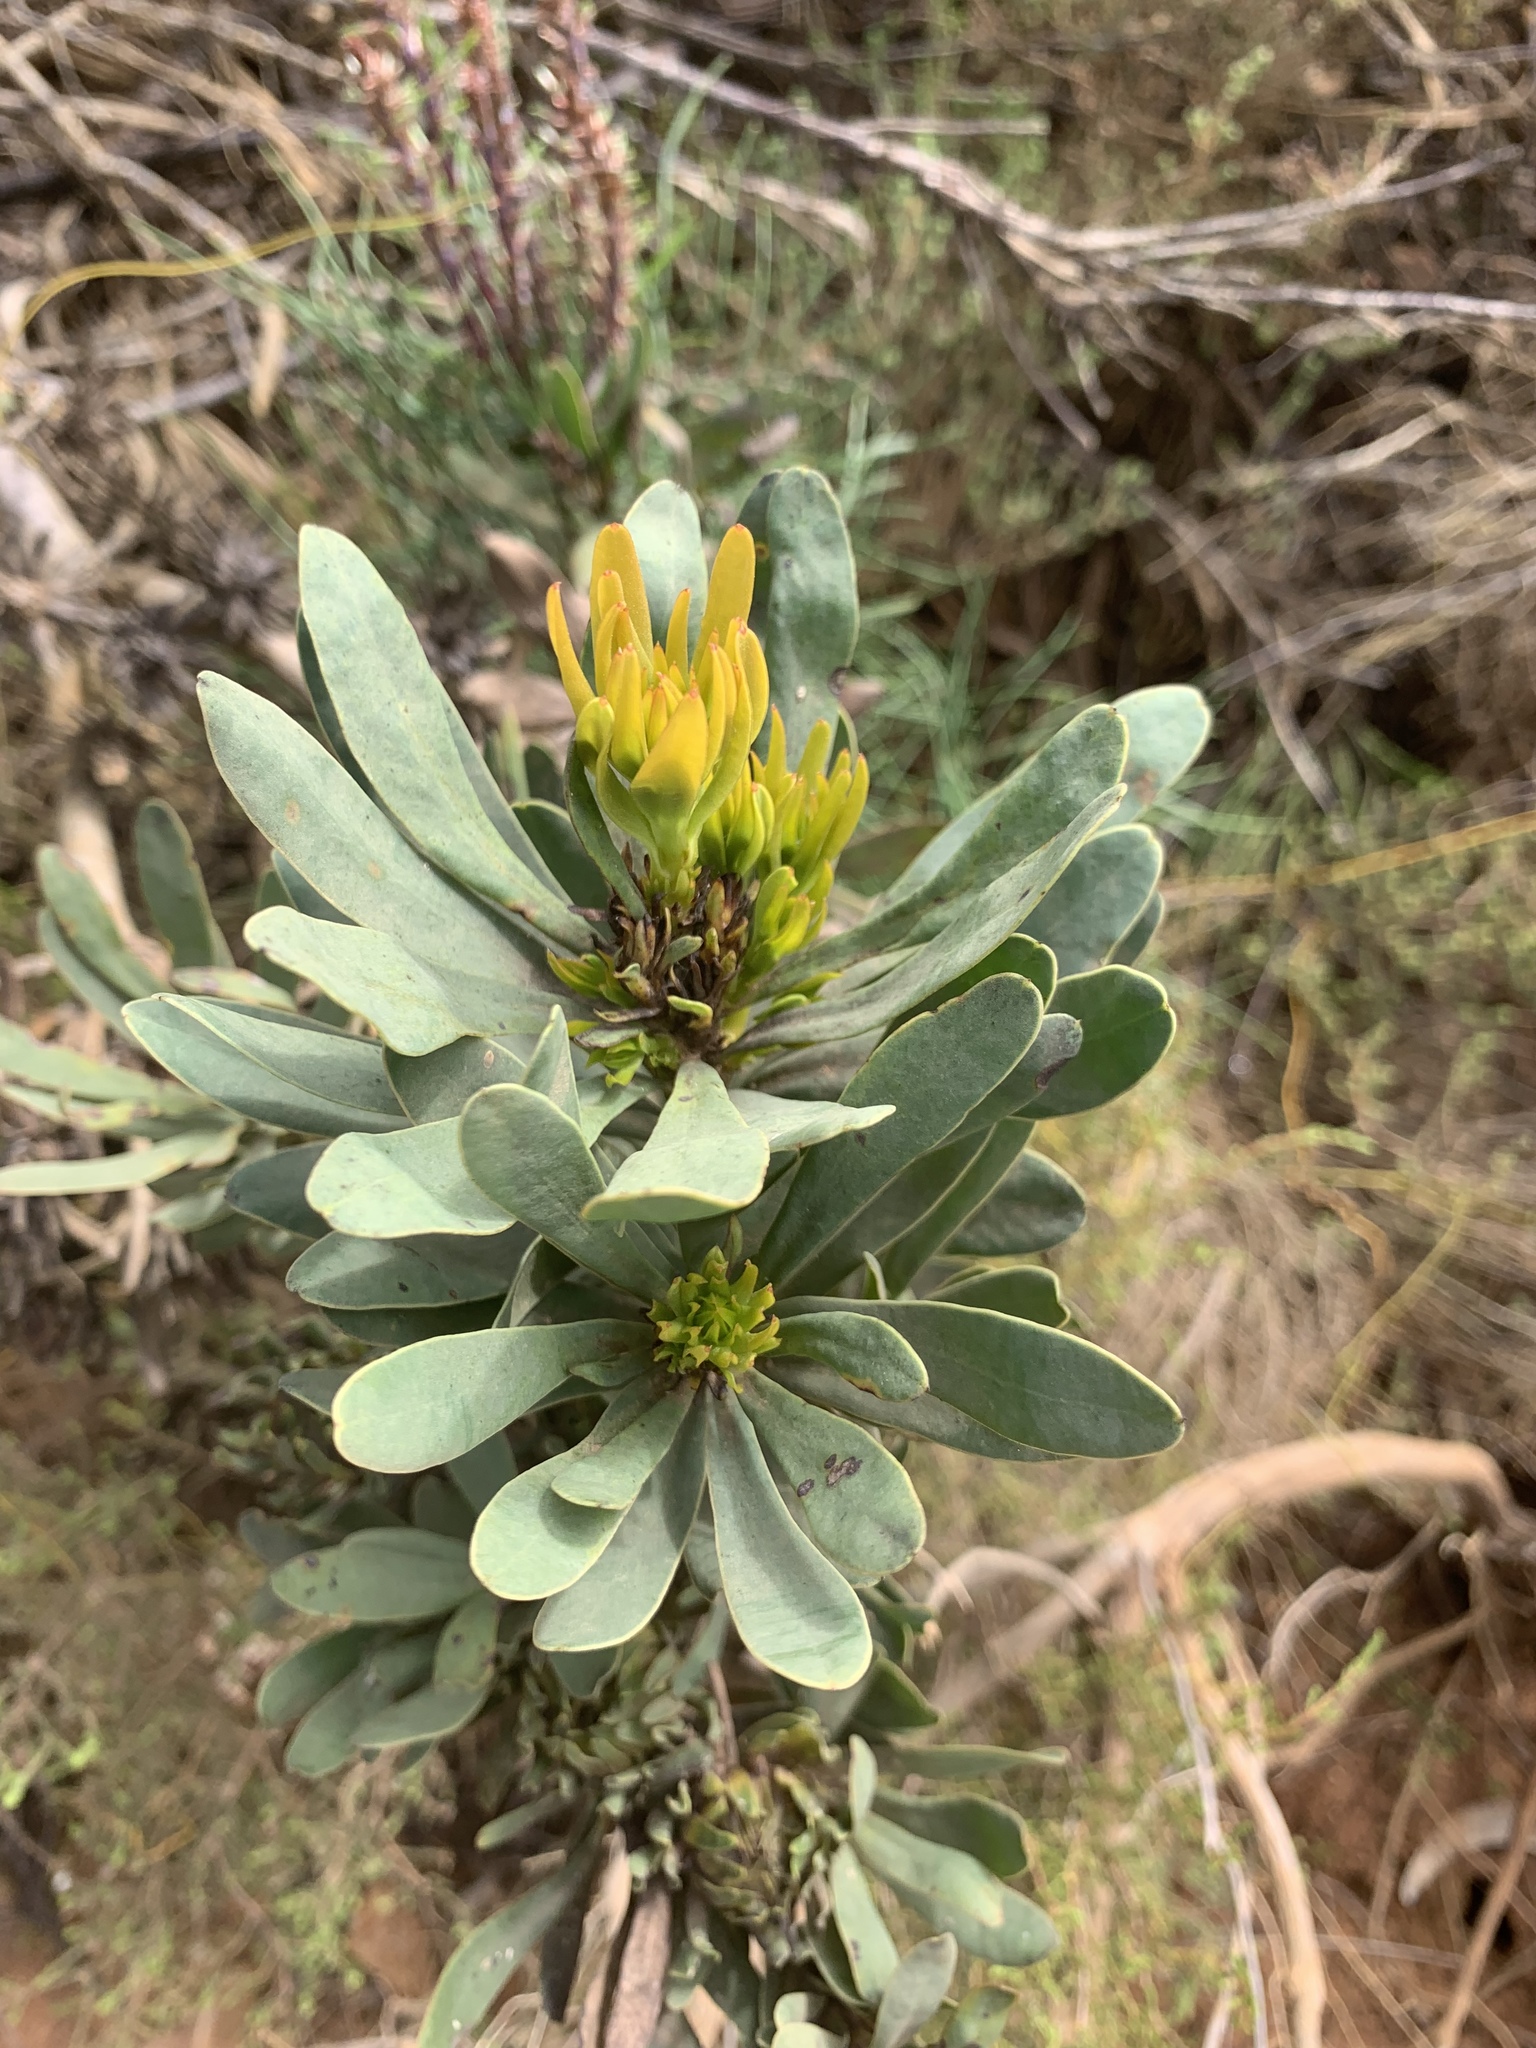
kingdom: Plantae
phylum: Tracheophyta
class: Magnoliopsida
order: Proteales
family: Proteaceae
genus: Aulax
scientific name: Aulax umbellata
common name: Broad-leaf featherbush
